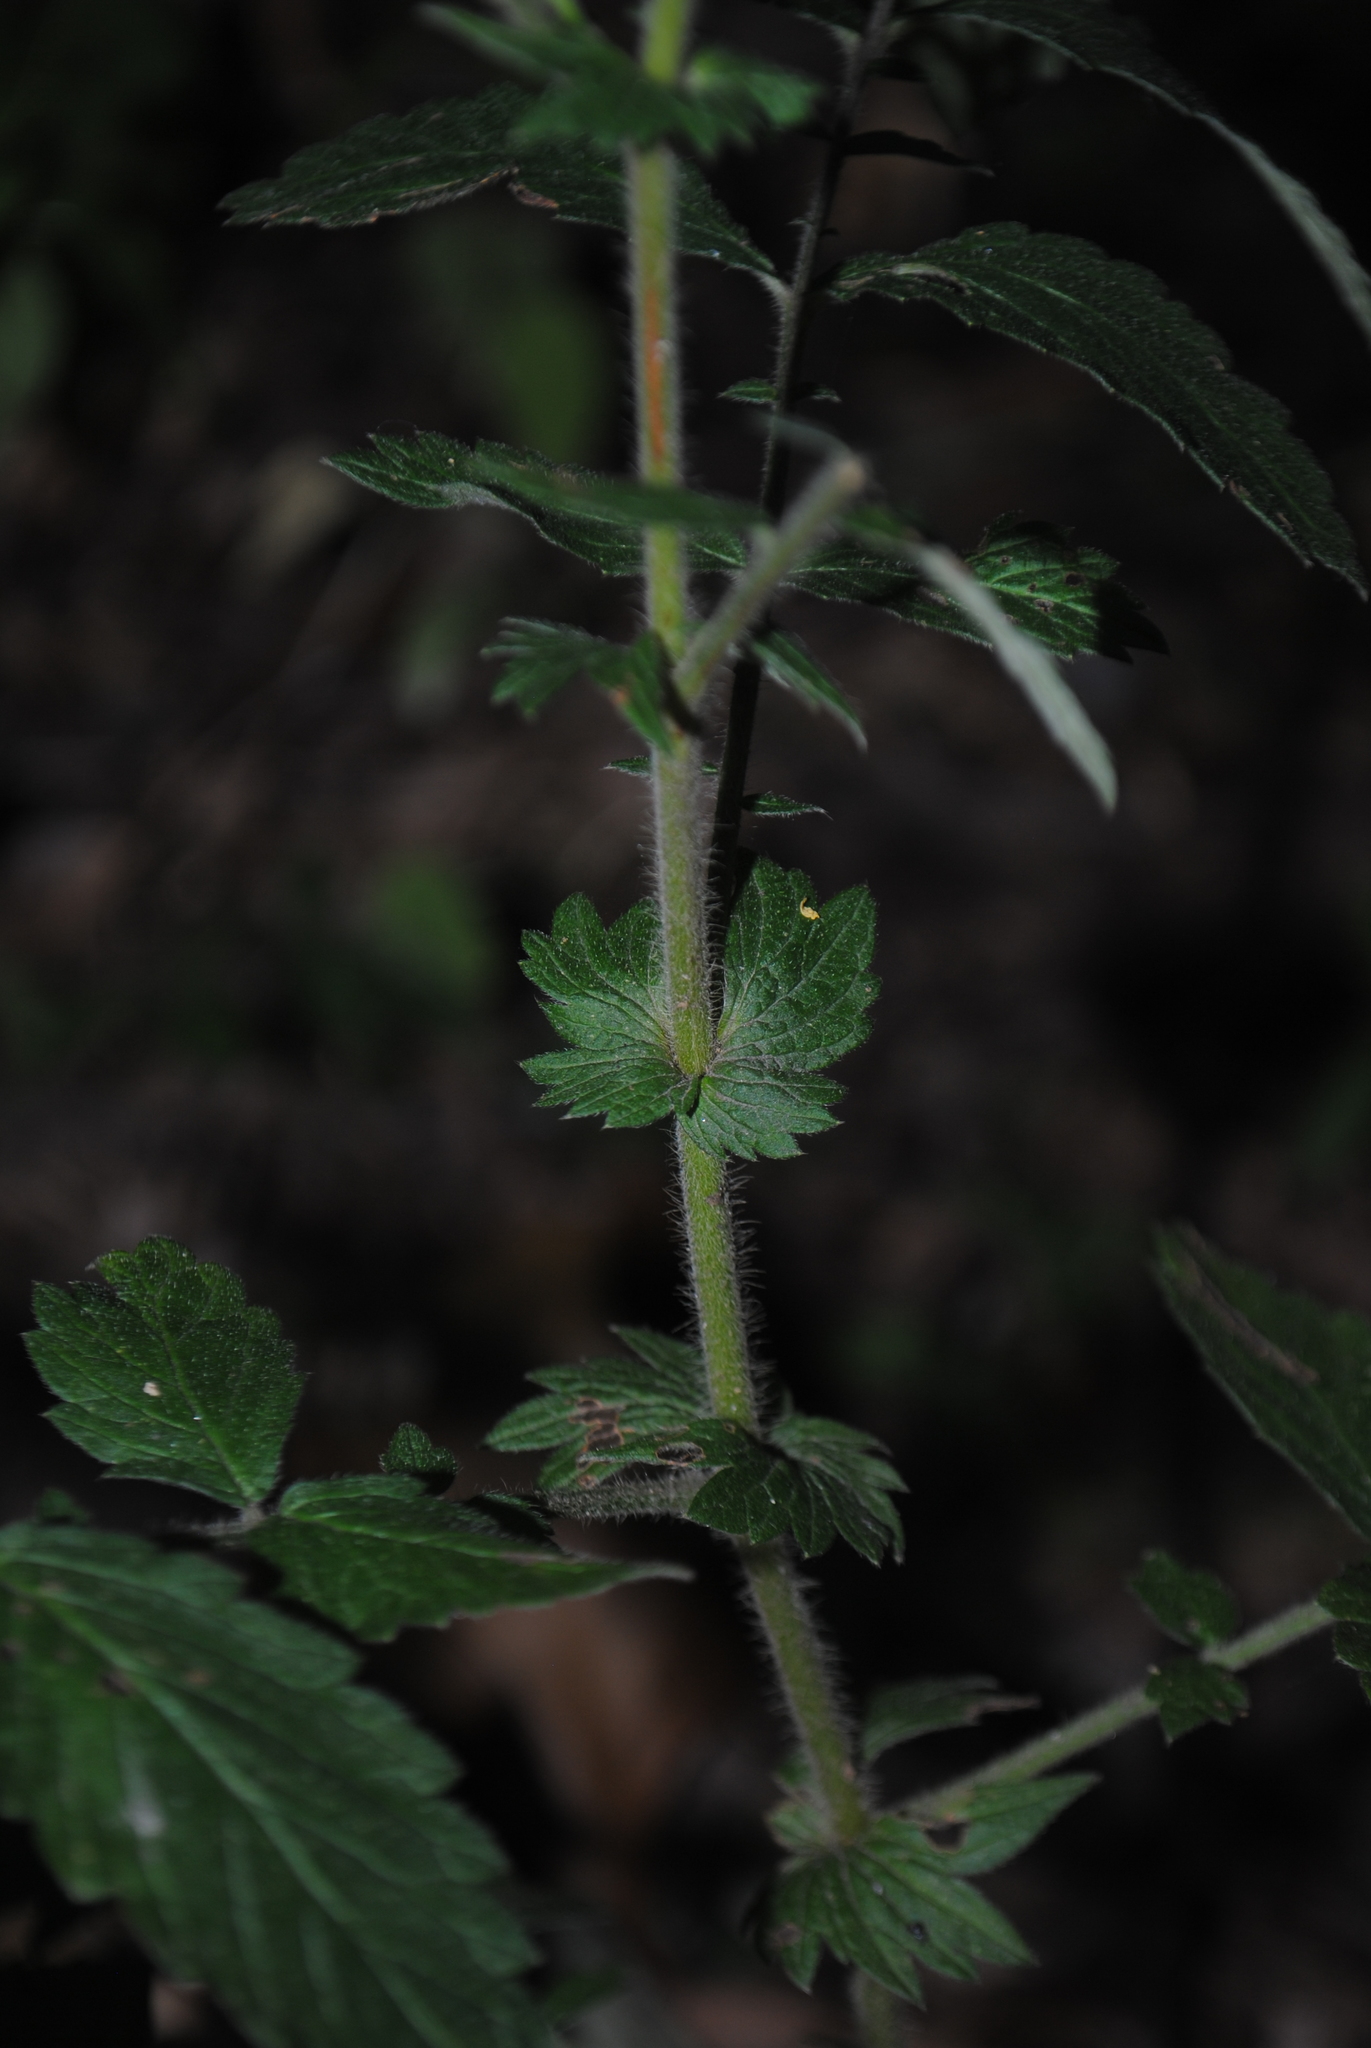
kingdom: Plantae
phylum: Tracheophyta
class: Magnoliopsida
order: Rosales
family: Rosaceae
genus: Agrimonia
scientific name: Agrimonia pubescens
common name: Downy agrimony
